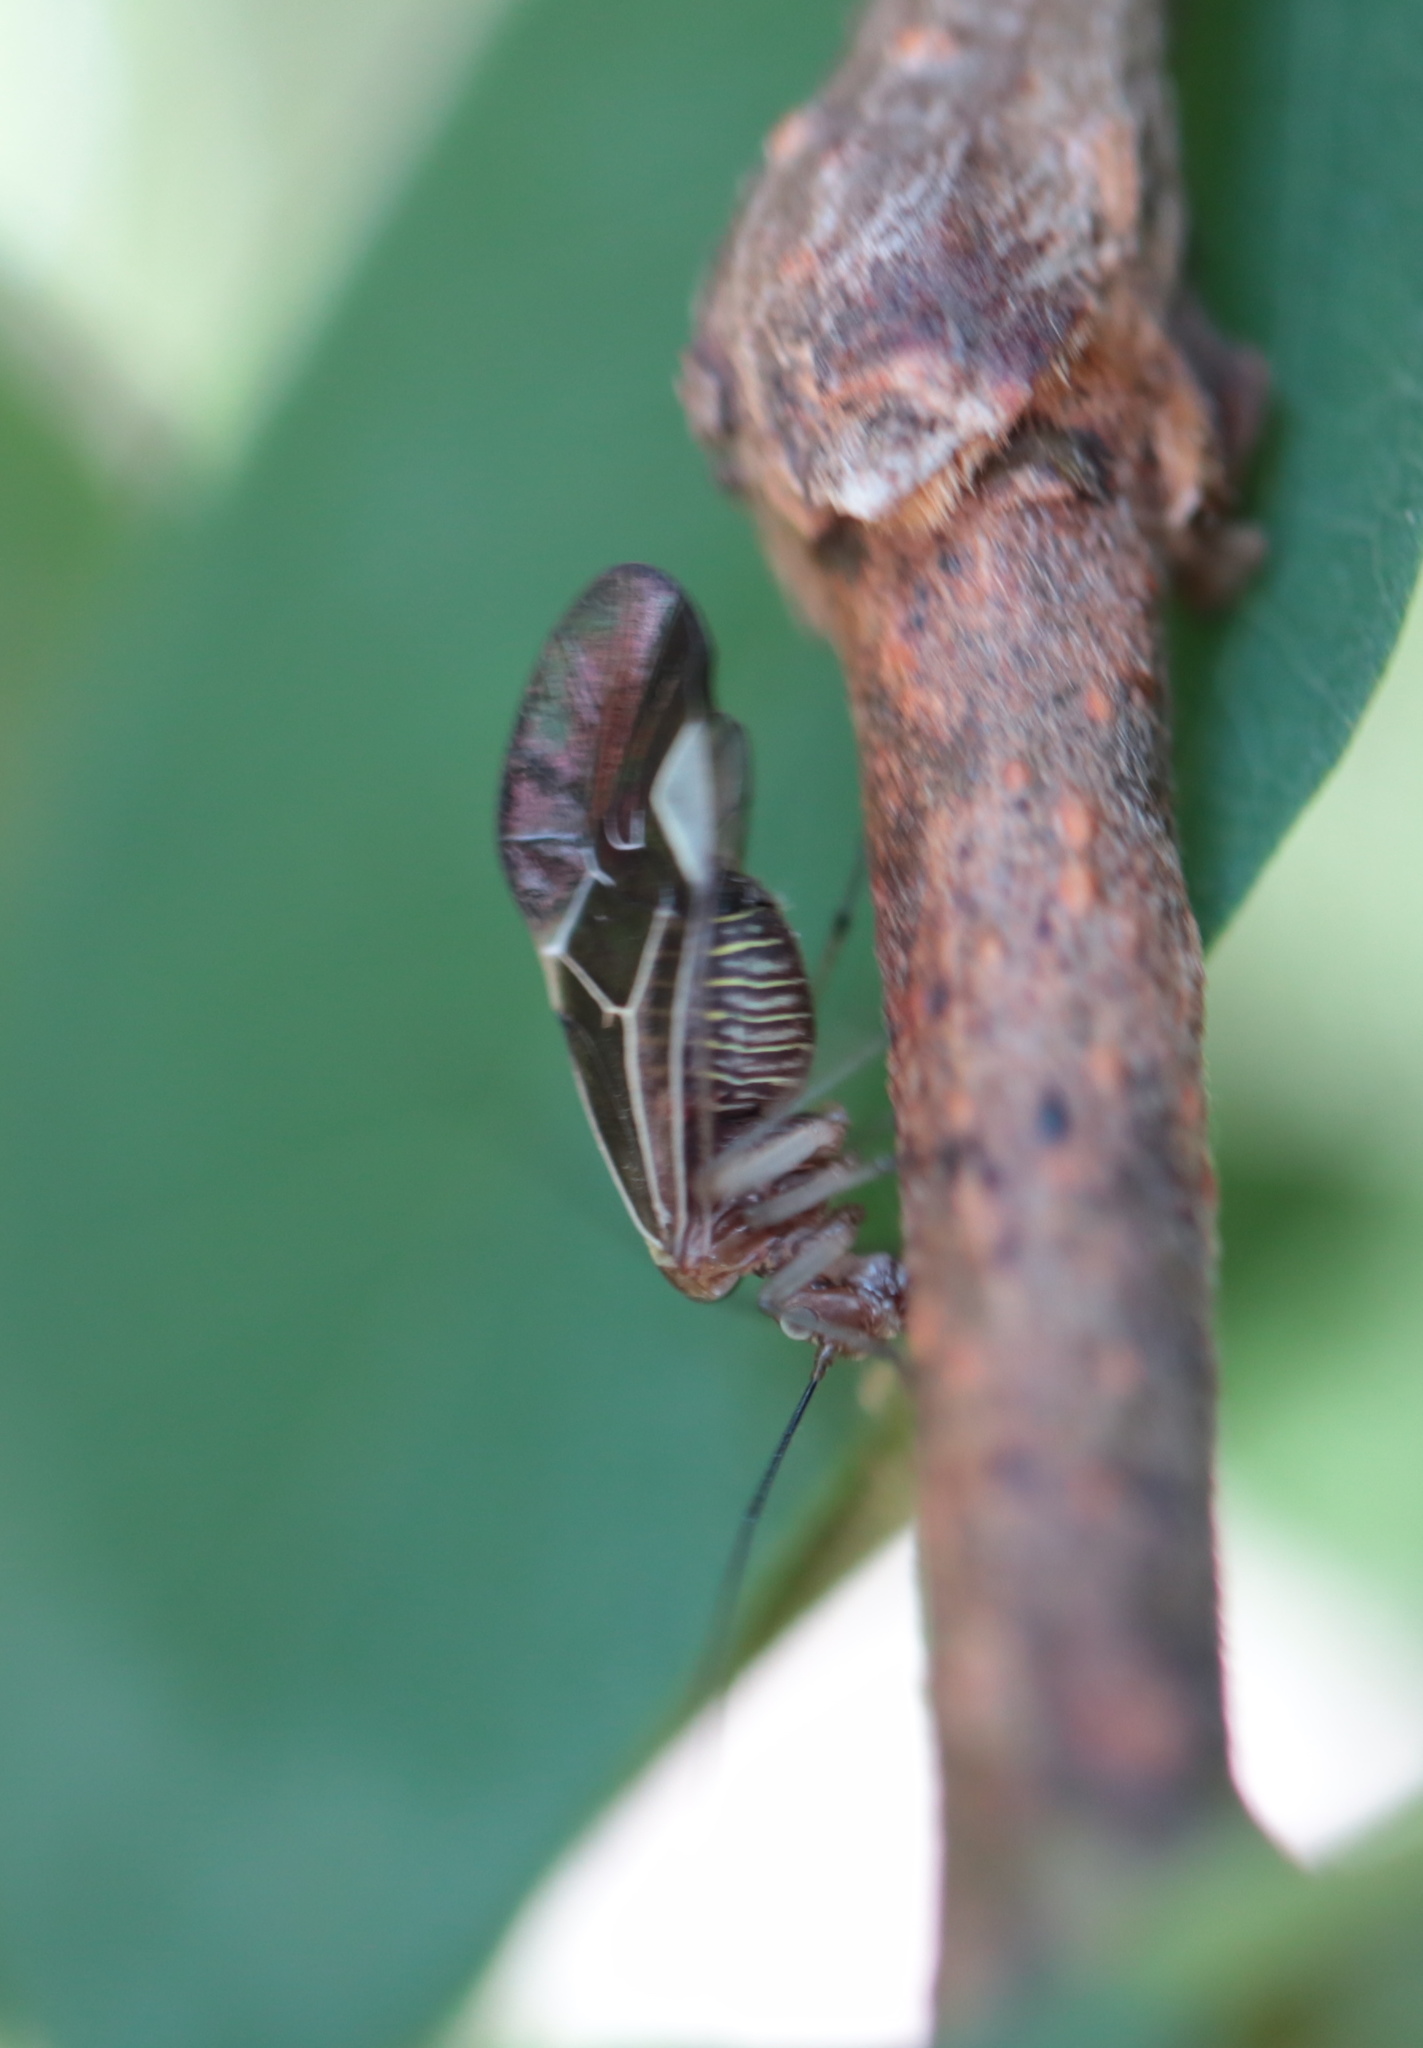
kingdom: Animalia
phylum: Arthropoda
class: Insecta
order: Psocodea
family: Psocidae
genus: Cerastipsocus
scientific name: Cerastipsocus venosus
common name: Tree cattle
